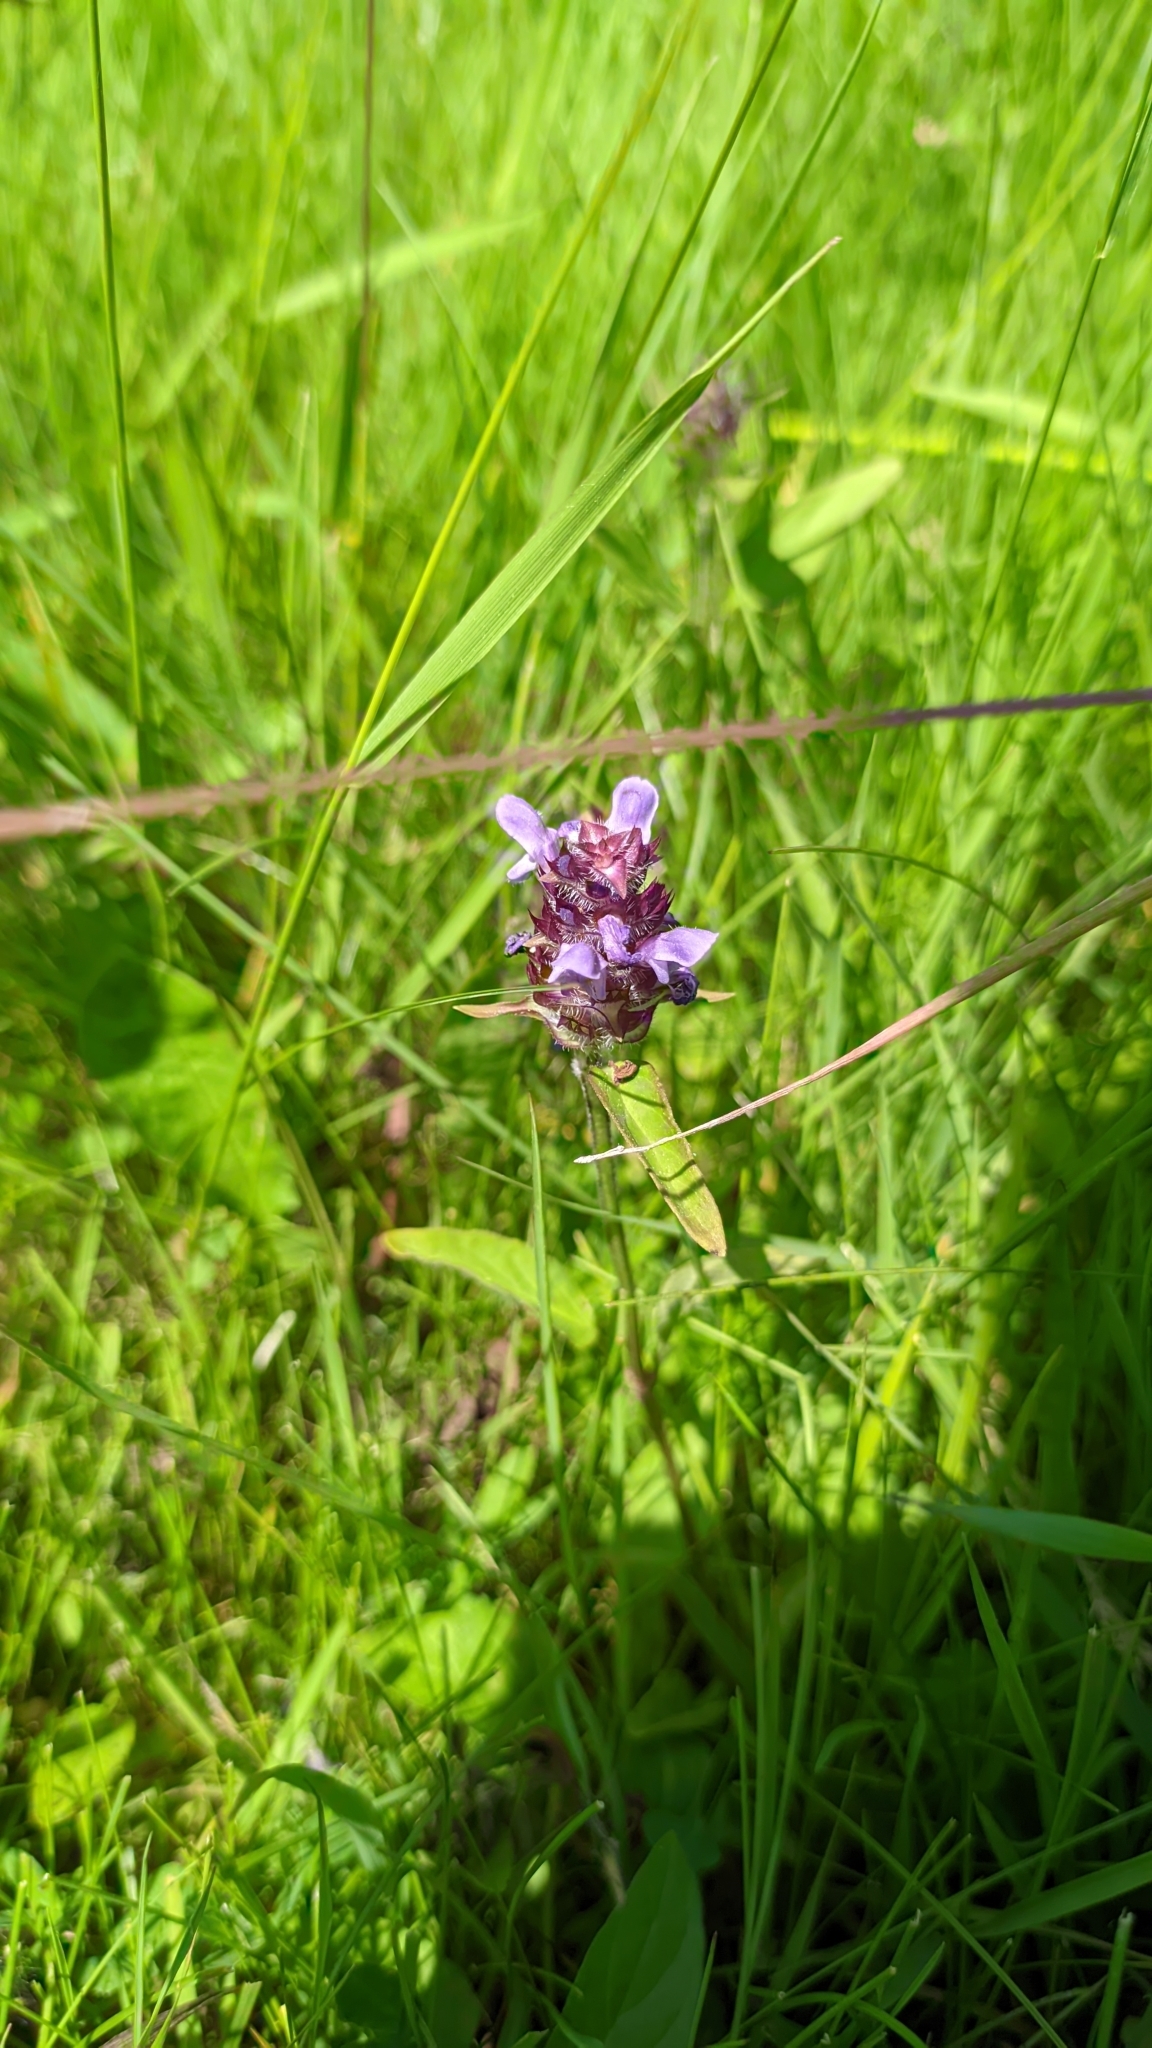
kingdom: Plantae
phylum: Tracheophyta
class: Magnoliopsida
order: Lamiales
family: Lamiaceae
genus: Prunella
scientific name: Prunella vulgaris
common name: Heal-all
